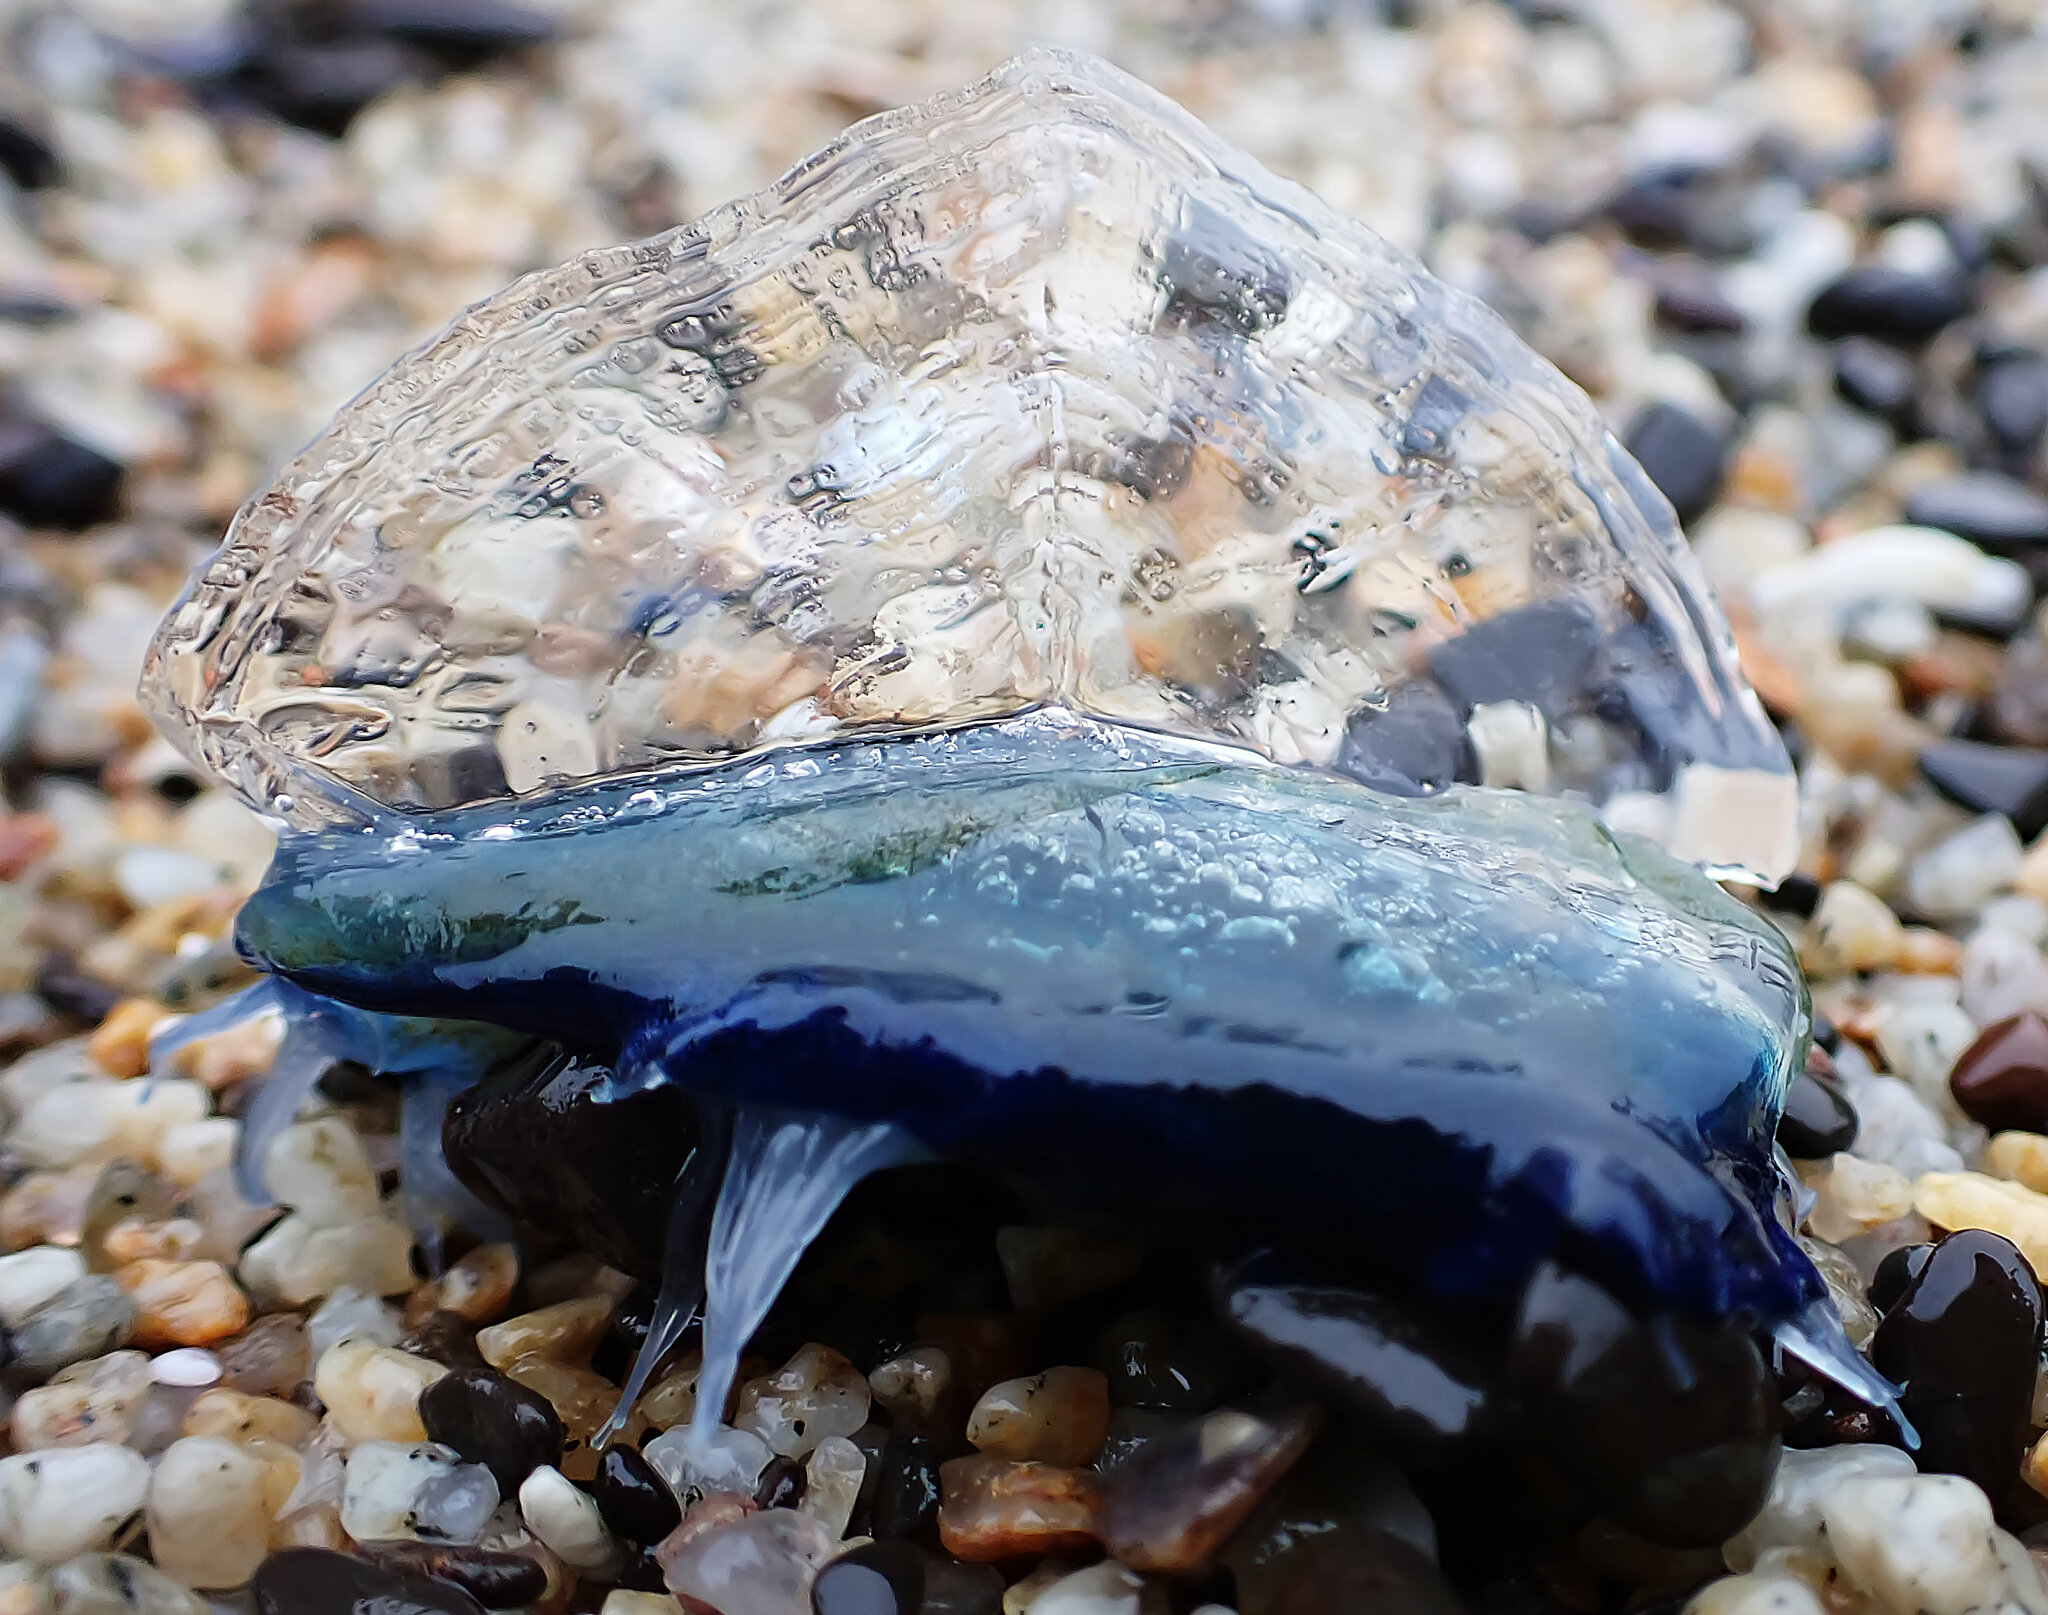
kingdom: Animalia
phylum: Cnidaria
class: Hydrozoa
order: Anthoathecata
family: Porpitidae
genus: Velella
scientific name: Velella velella
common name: By-the-wind-sailor
